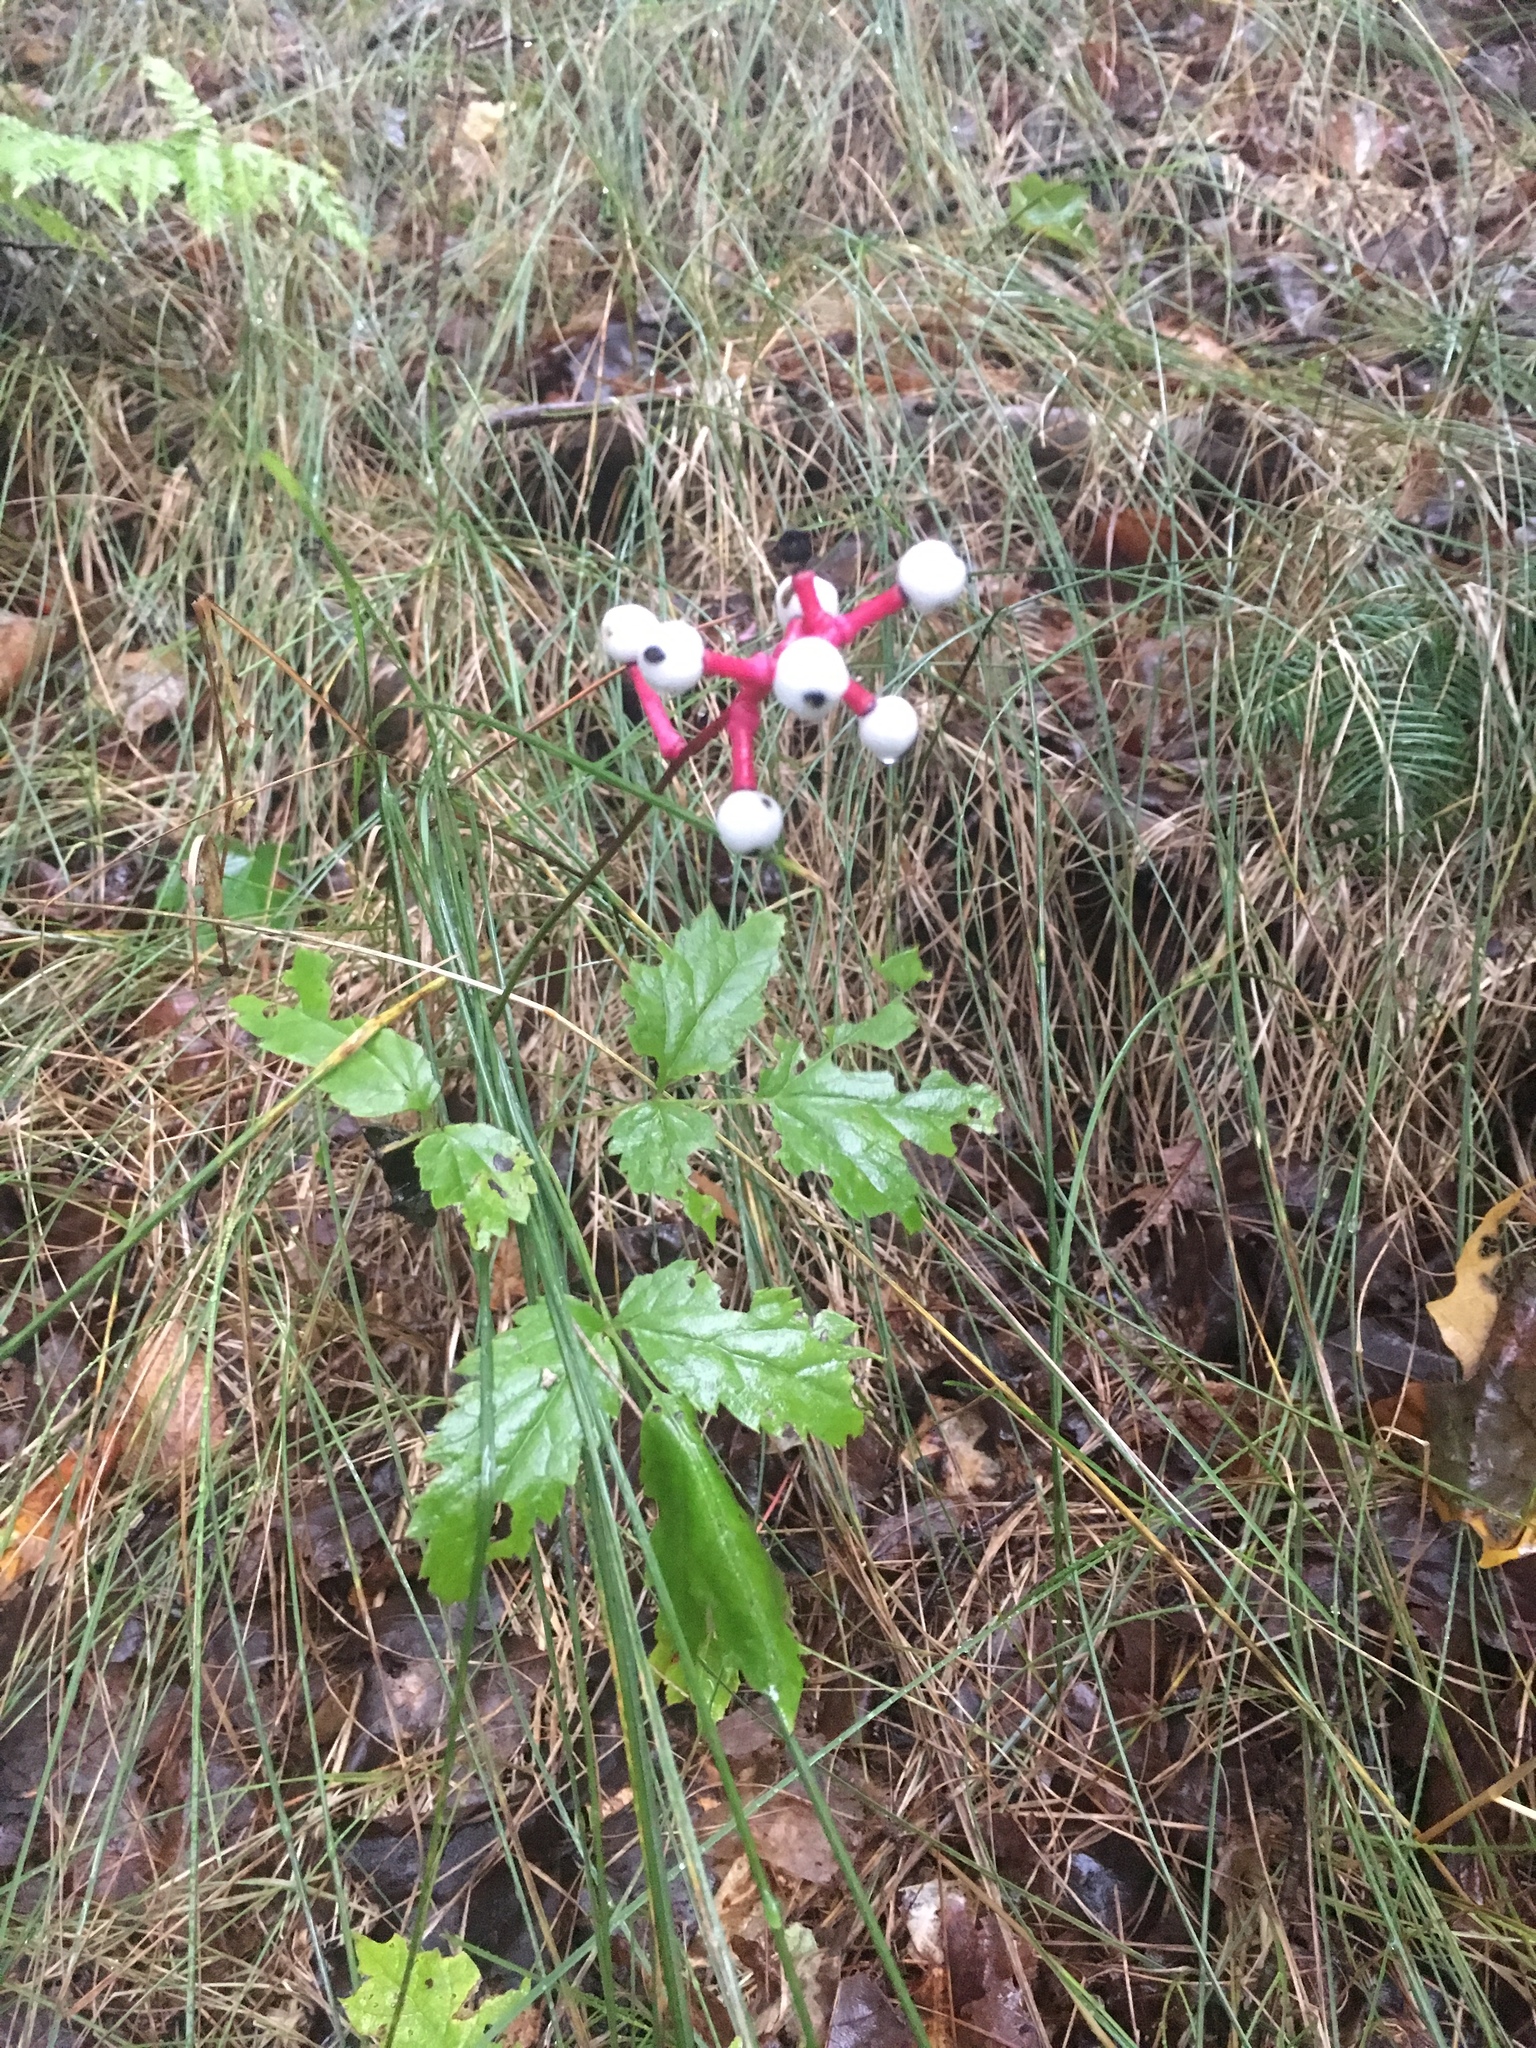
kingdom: Plantae
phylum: Tracheophyta
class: Magnoliopsida
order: Ranunculales
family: Ranunculaceae
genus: Actaea
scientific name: Actaea pachypoda
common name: Doll's-eyes
